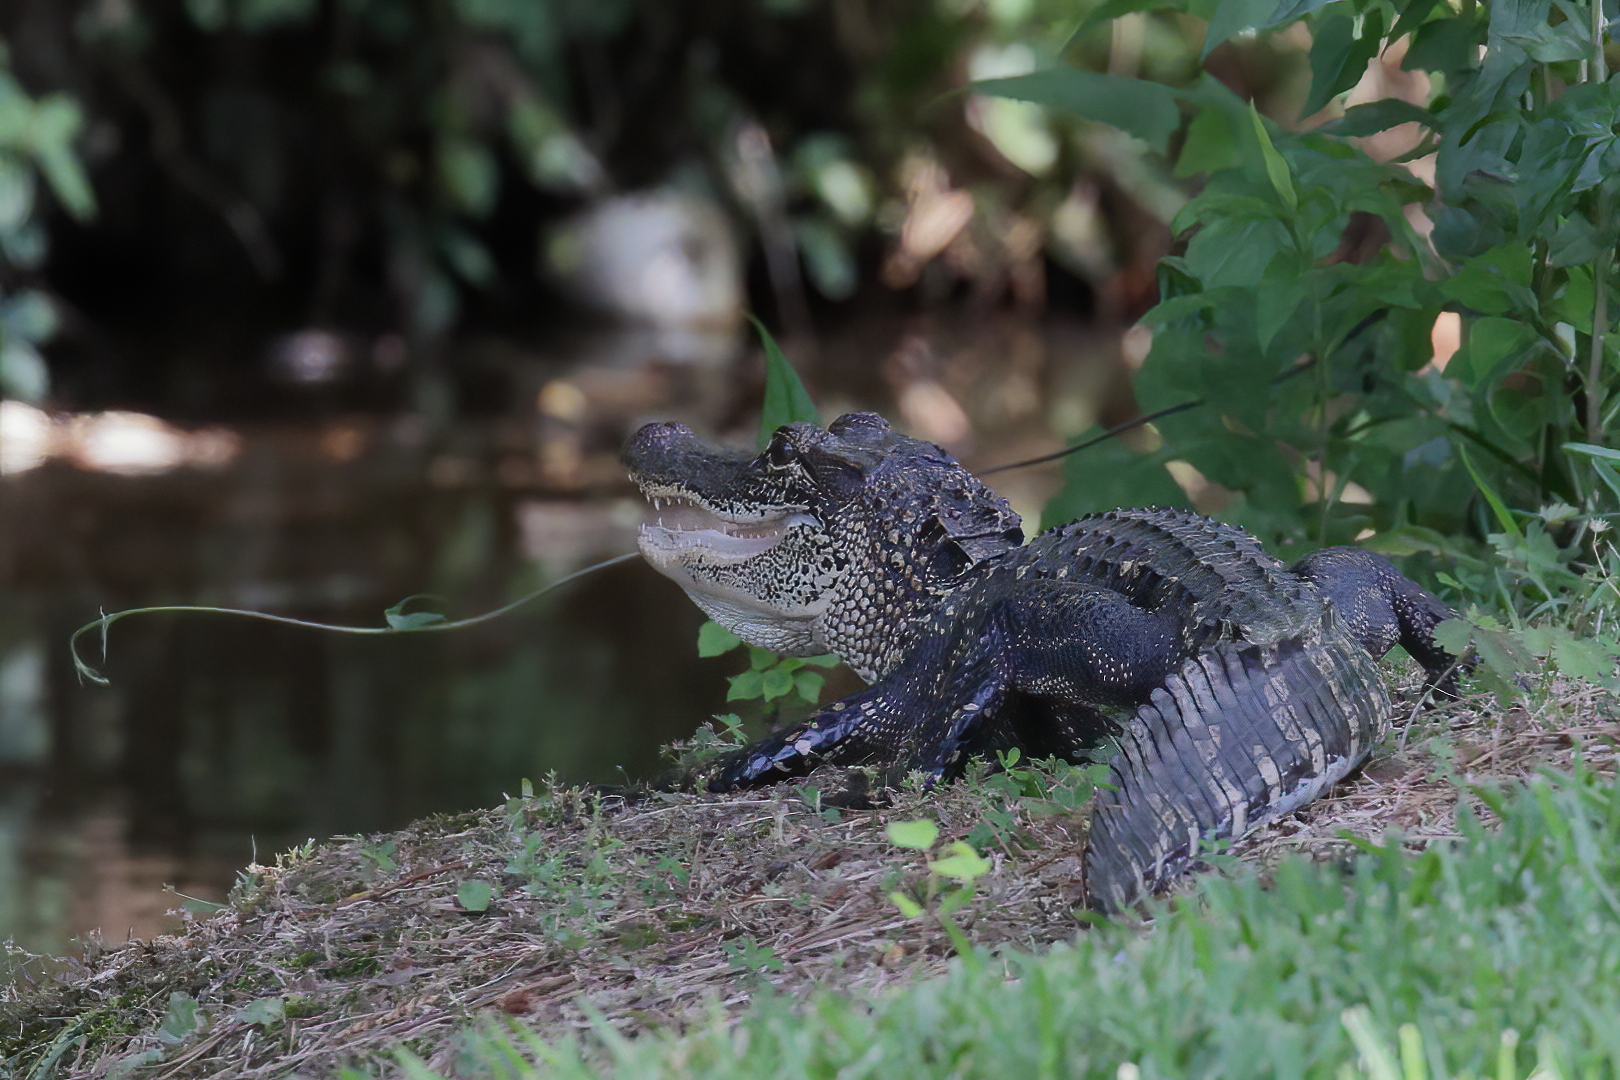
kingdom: Animalia
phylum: Chordata
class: Crocodylia
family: Alligatoridae
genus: Alligator
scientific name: Alligator mississippiensis
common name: American alligator
